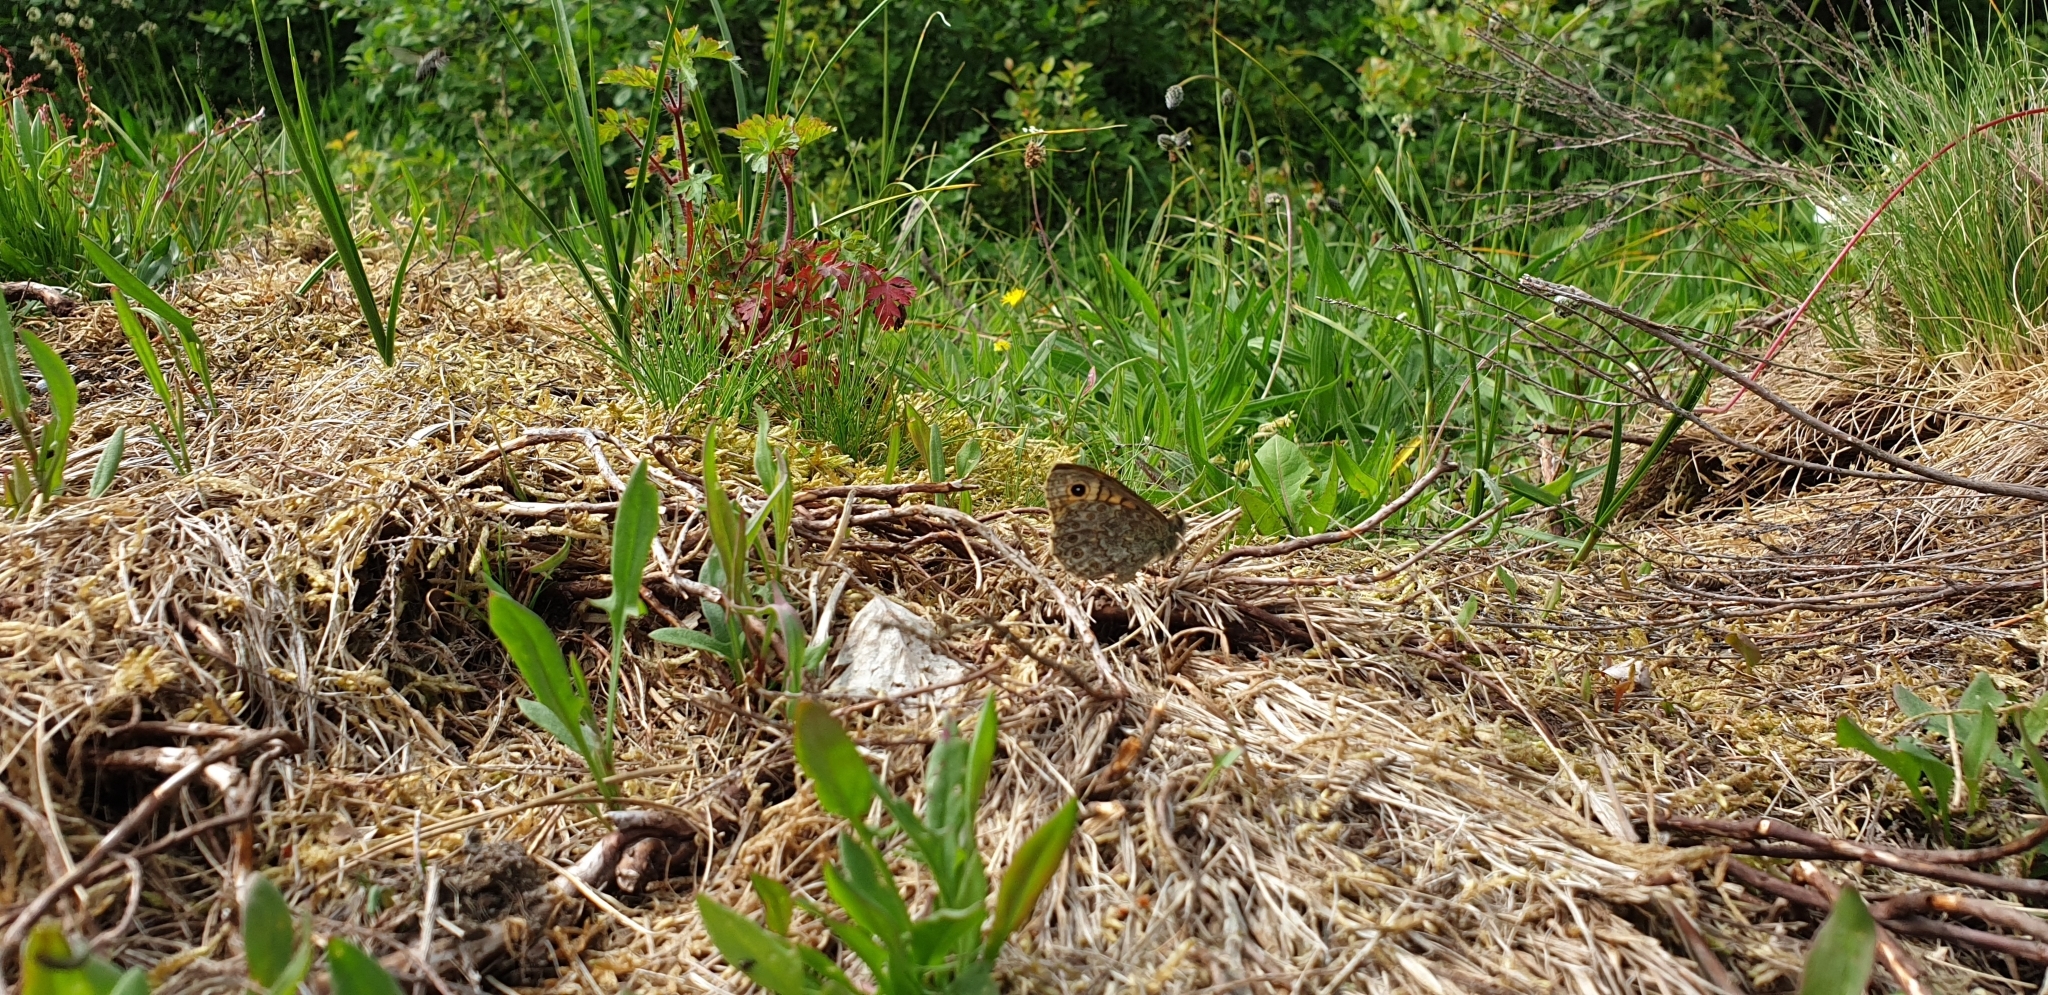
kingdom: Animalia
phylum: Arthropoda
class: Insecta
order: Lepidoptera
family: Nymphalidae
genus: Pararge
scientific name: Pararge Lasiommata megera
